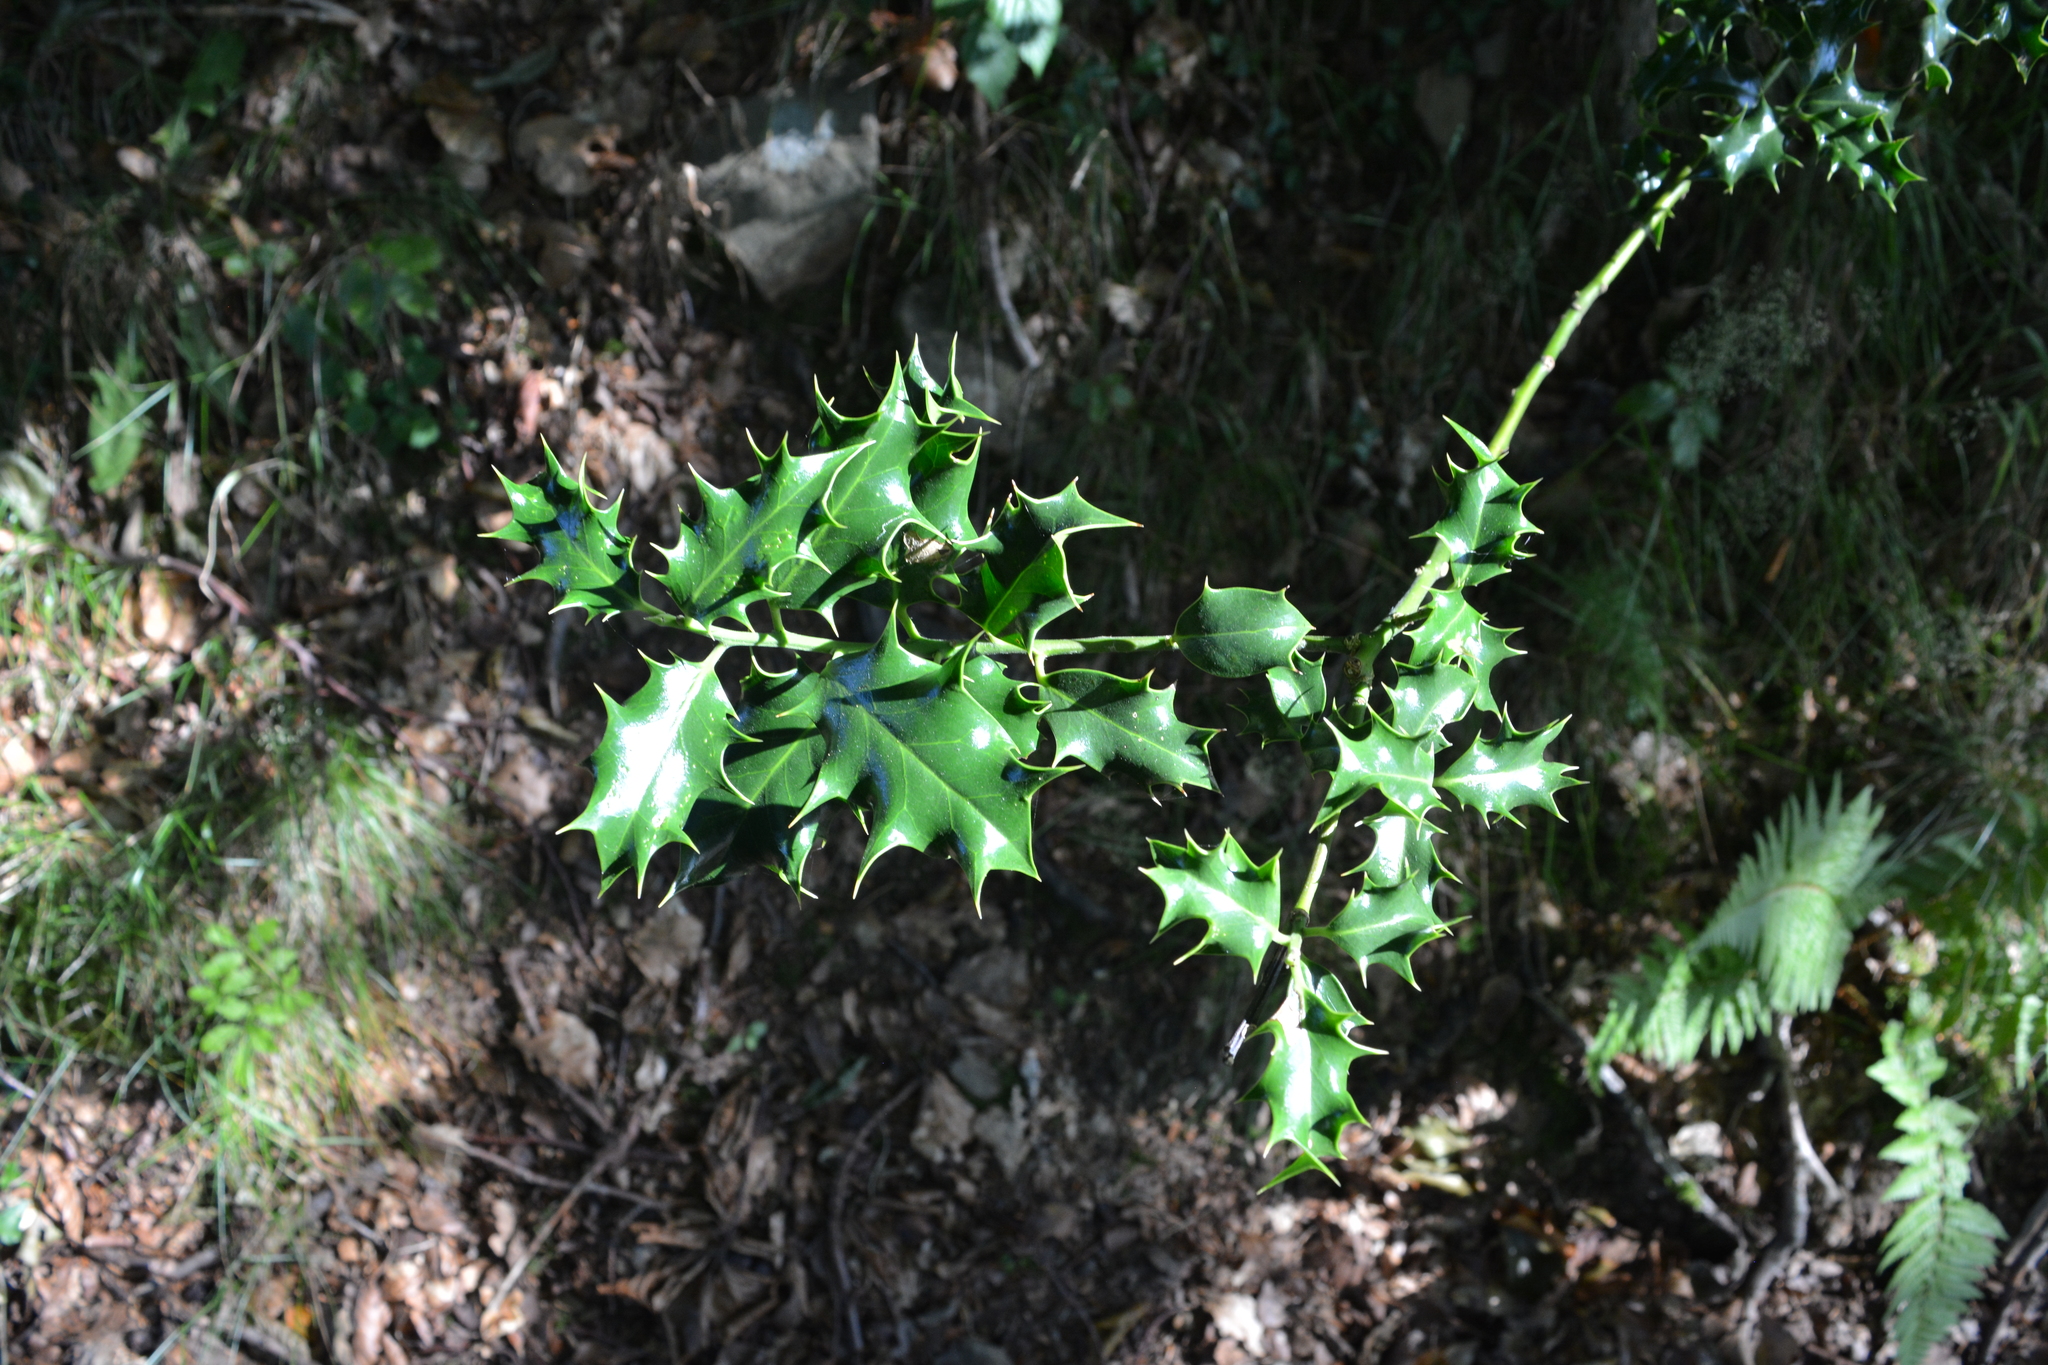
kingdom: Plantae
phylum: Tracheophyta
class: Magnoliopsida
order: Aquifoliales
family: Aquifoliaceae
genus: Ilex
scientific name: Ilex aquifolium
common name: English holly
